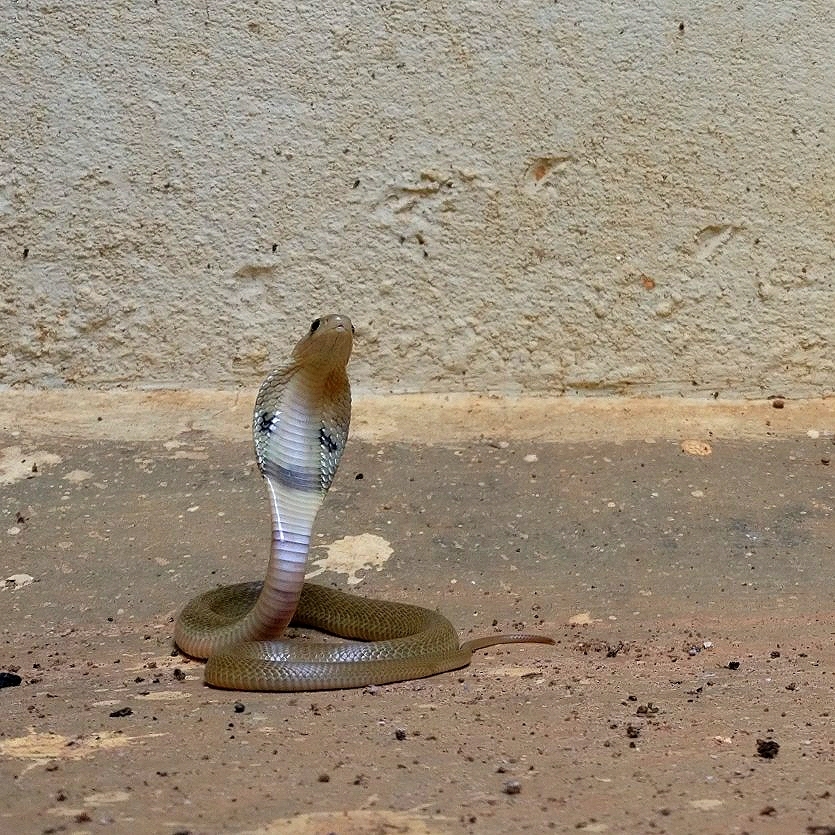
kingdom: Animalia
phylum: Chordata
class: Squamata
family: Elapidae
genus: Naja
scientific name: Naja naja
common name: Indian cobra
